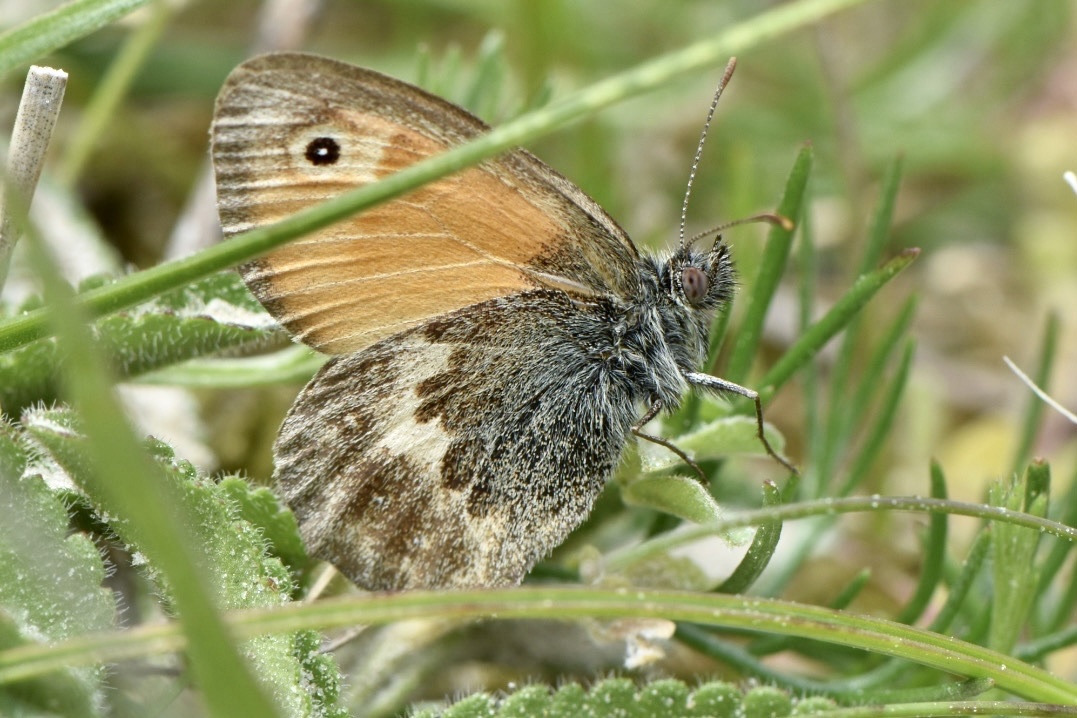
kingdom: Animalia
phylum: Arthropoda
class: Insecta
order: Lepidoptera
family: Nymphalidae
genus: Coenonympha
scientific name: Coenonympha pamphilus
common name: Small heath
